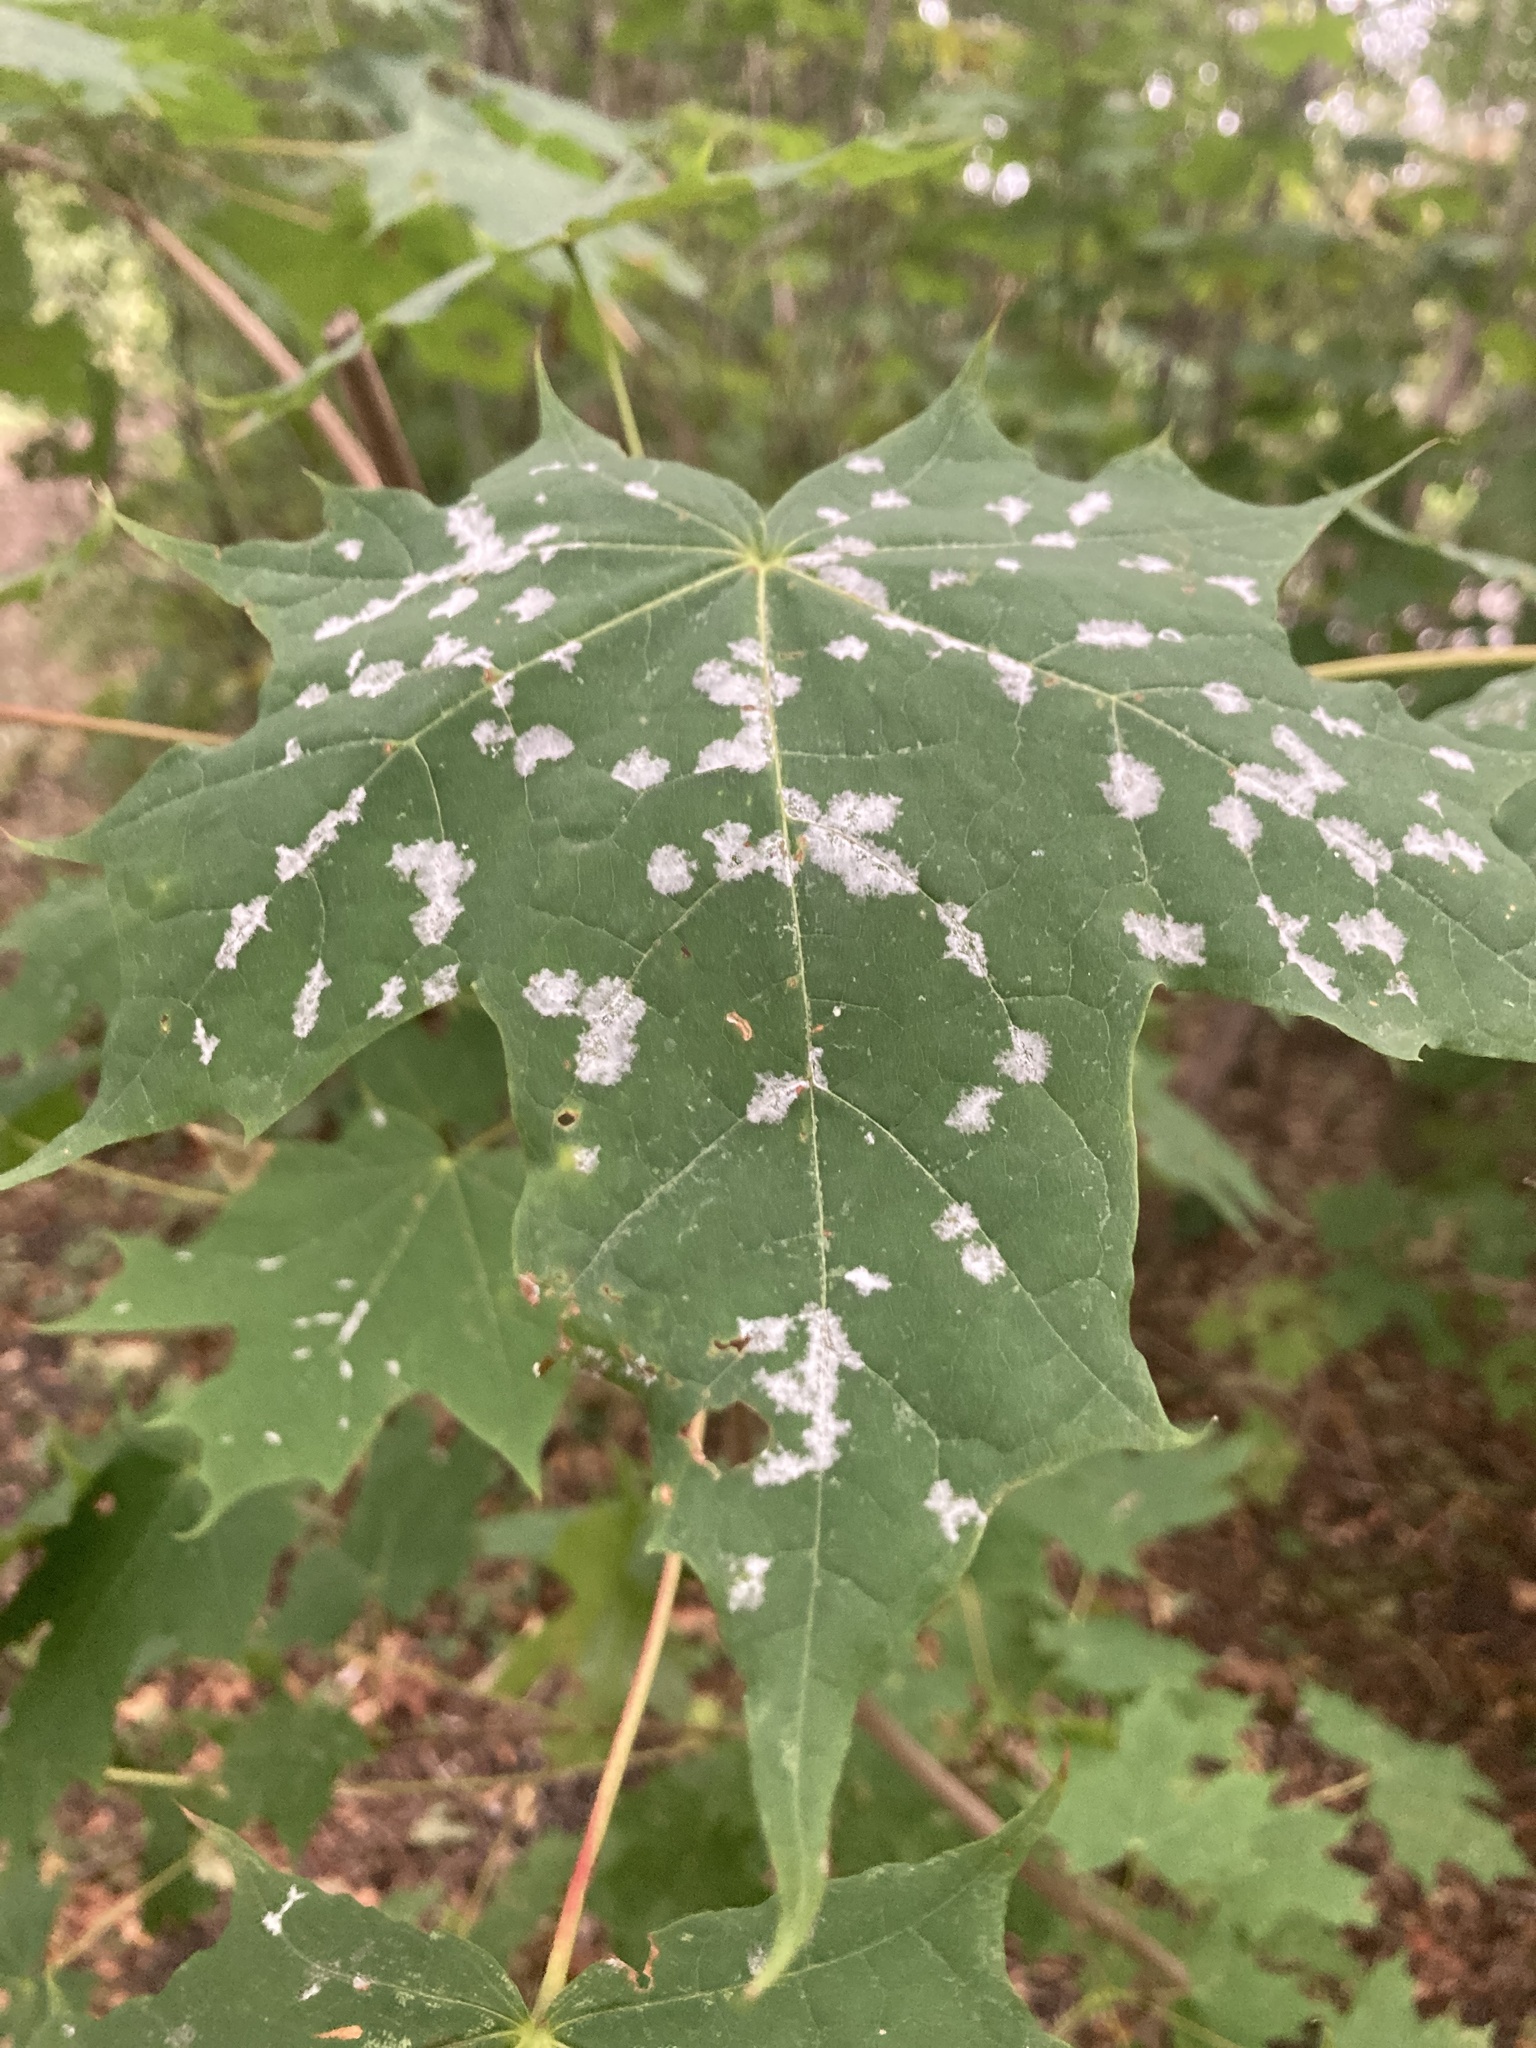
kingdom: Fungi
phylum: Ascomycota
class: Leotiomycetes
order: Helotiales
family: Erysiphaceae
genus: Sawadaea
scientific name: Sawadaea tulasnei
